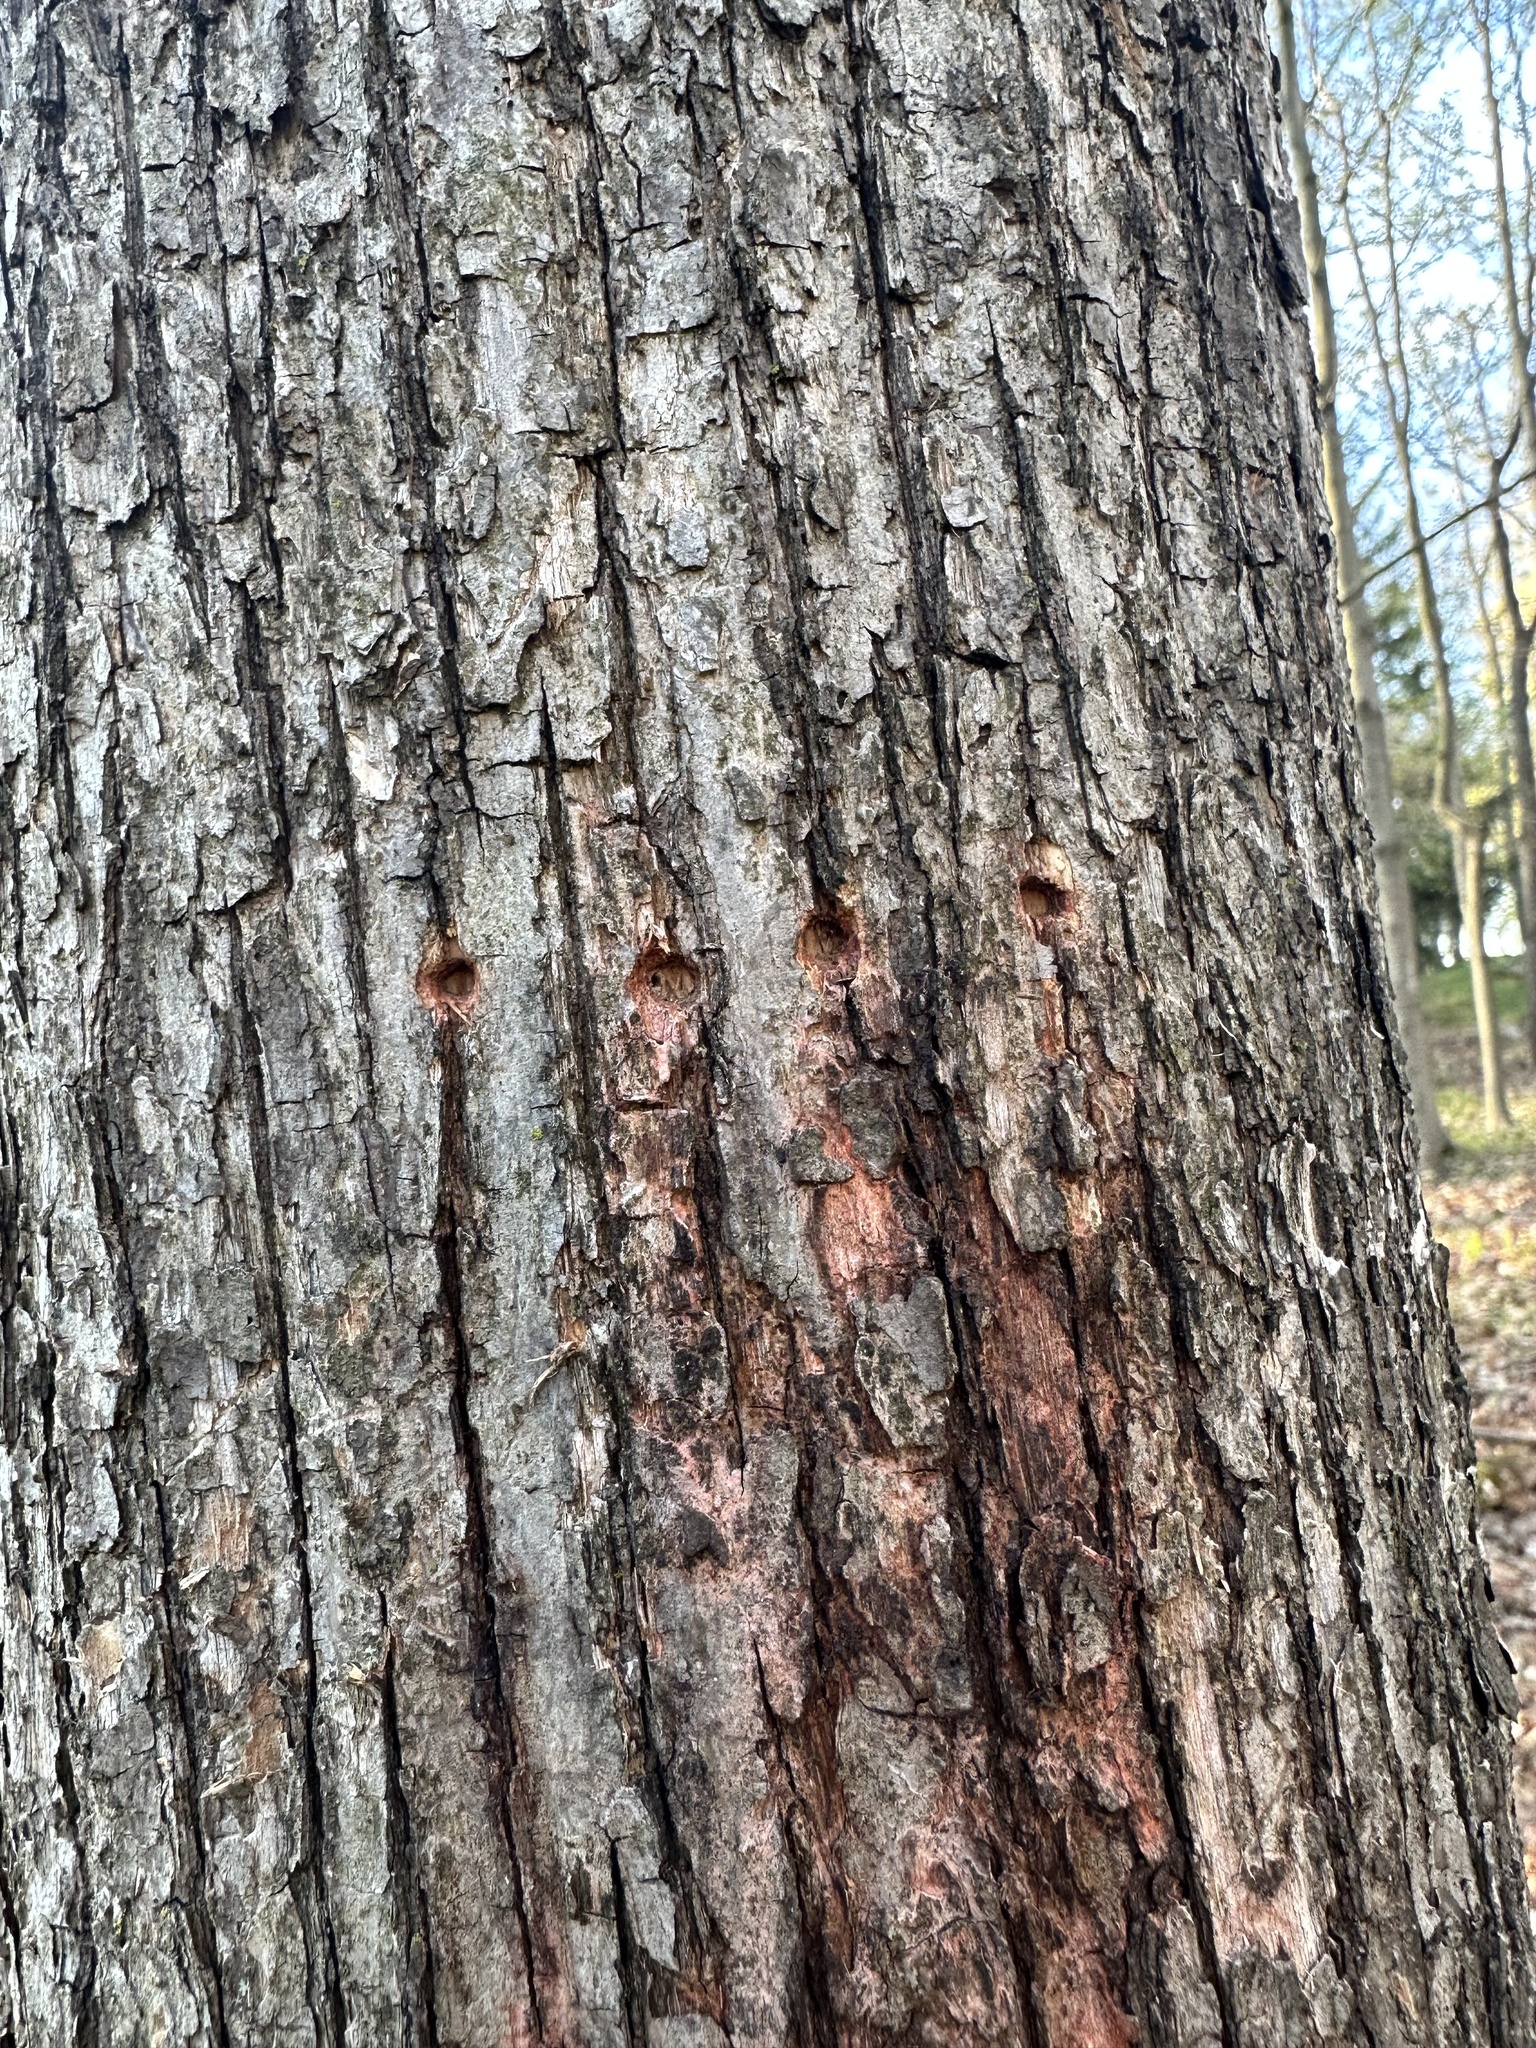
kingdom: Animalia
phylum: Chordata
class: Aves
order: Piciformes
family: Picidae
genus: Sphyrapicus
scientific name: Sphyrapicus varius
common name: Yellow-bellied sapsucker
